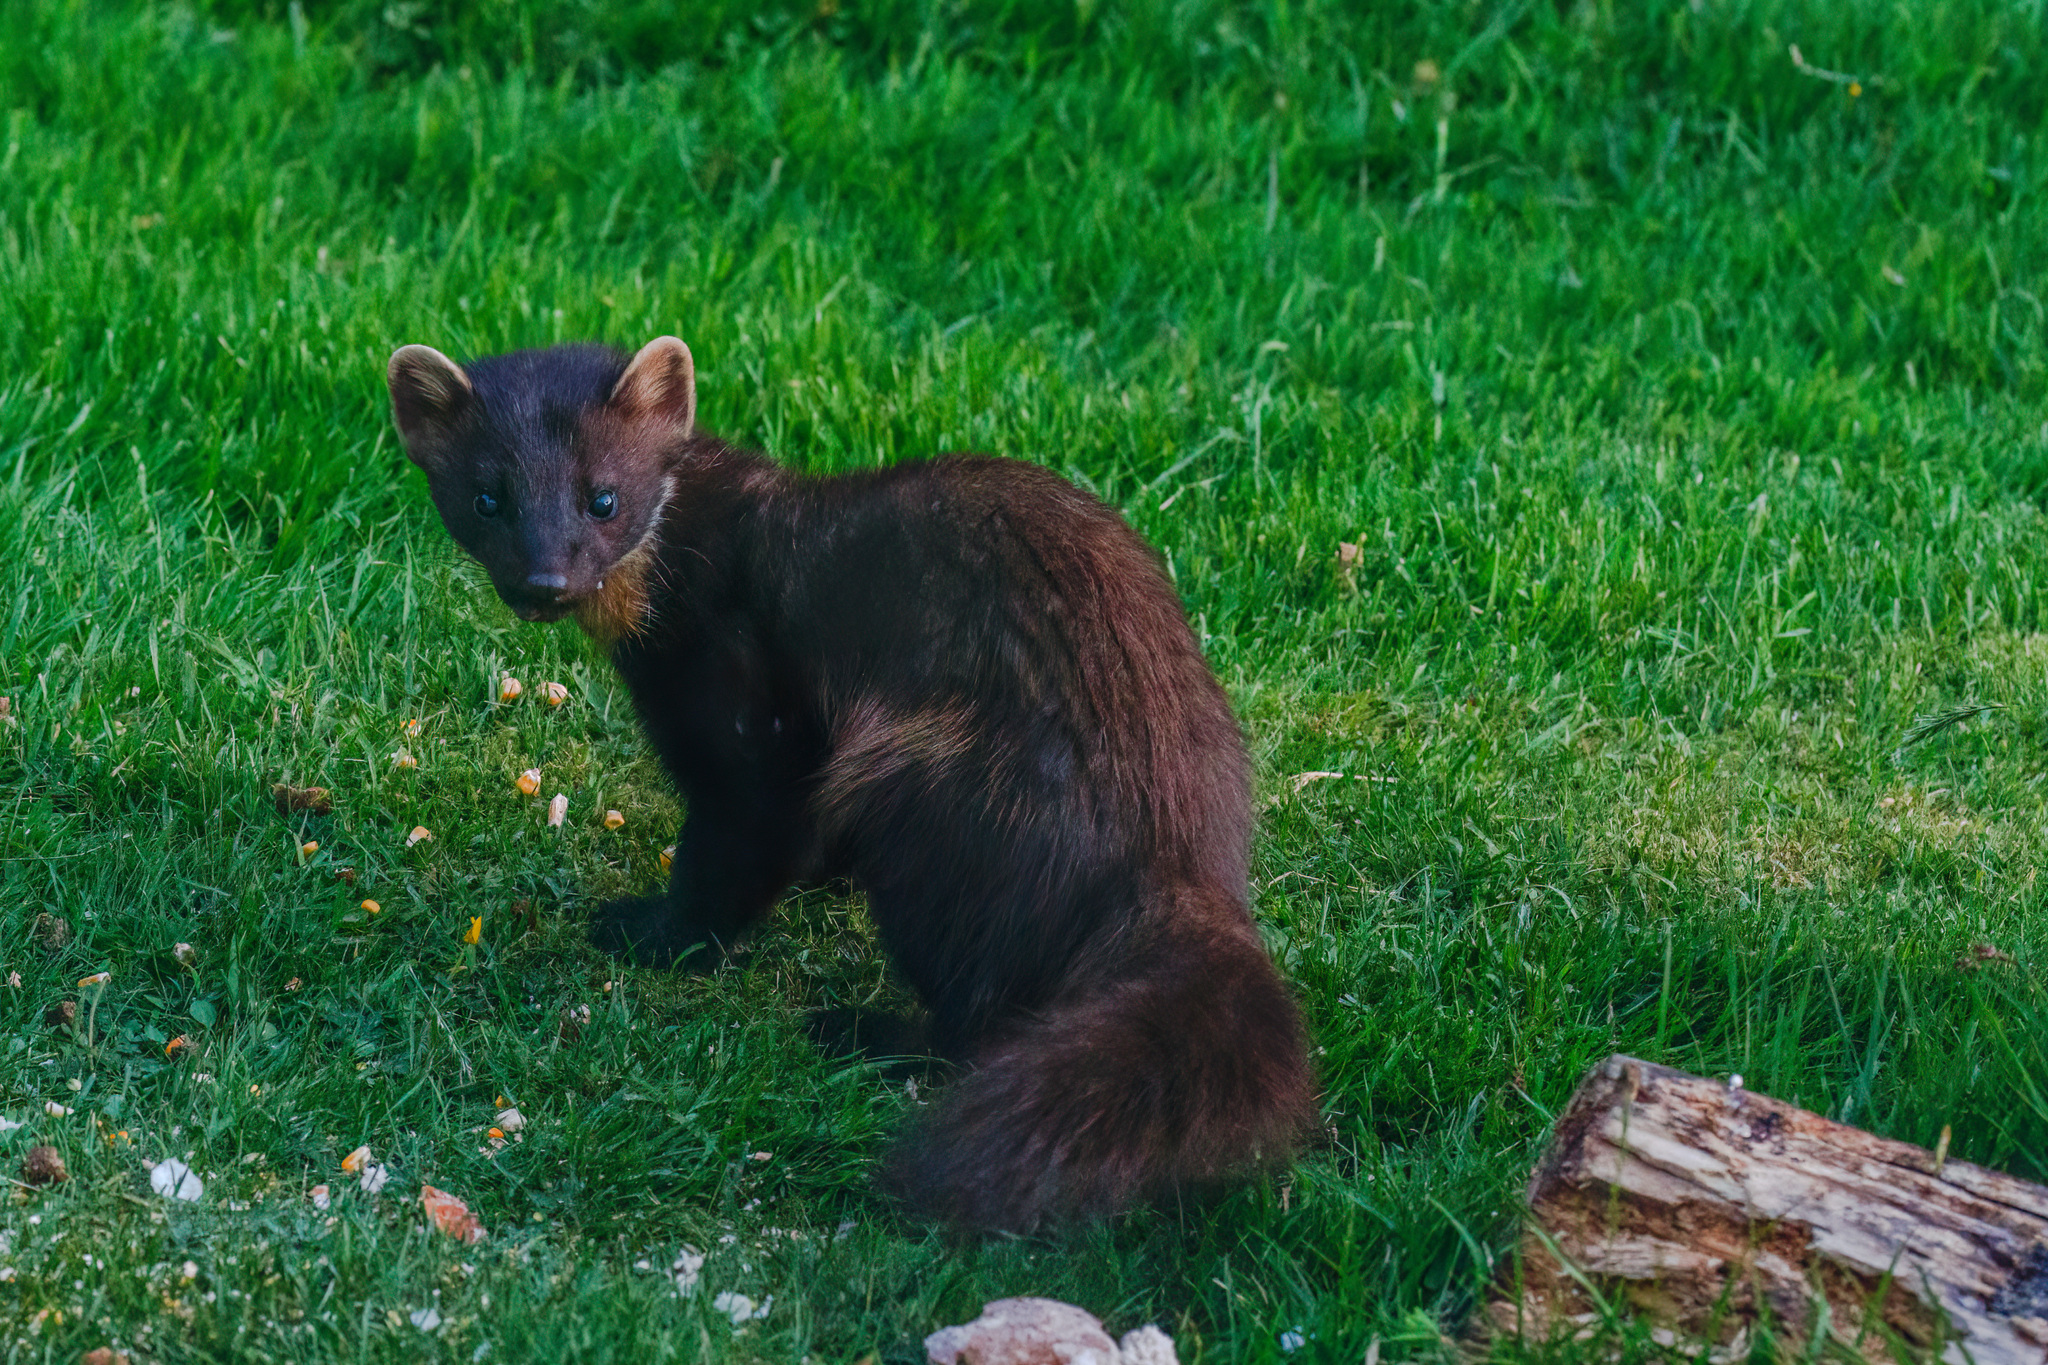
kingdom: Animalia
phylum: Chordata
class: Mammalia
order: Carnivora
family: Mustelidae
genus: Martes
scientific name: Martes martes
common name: European pine marten
